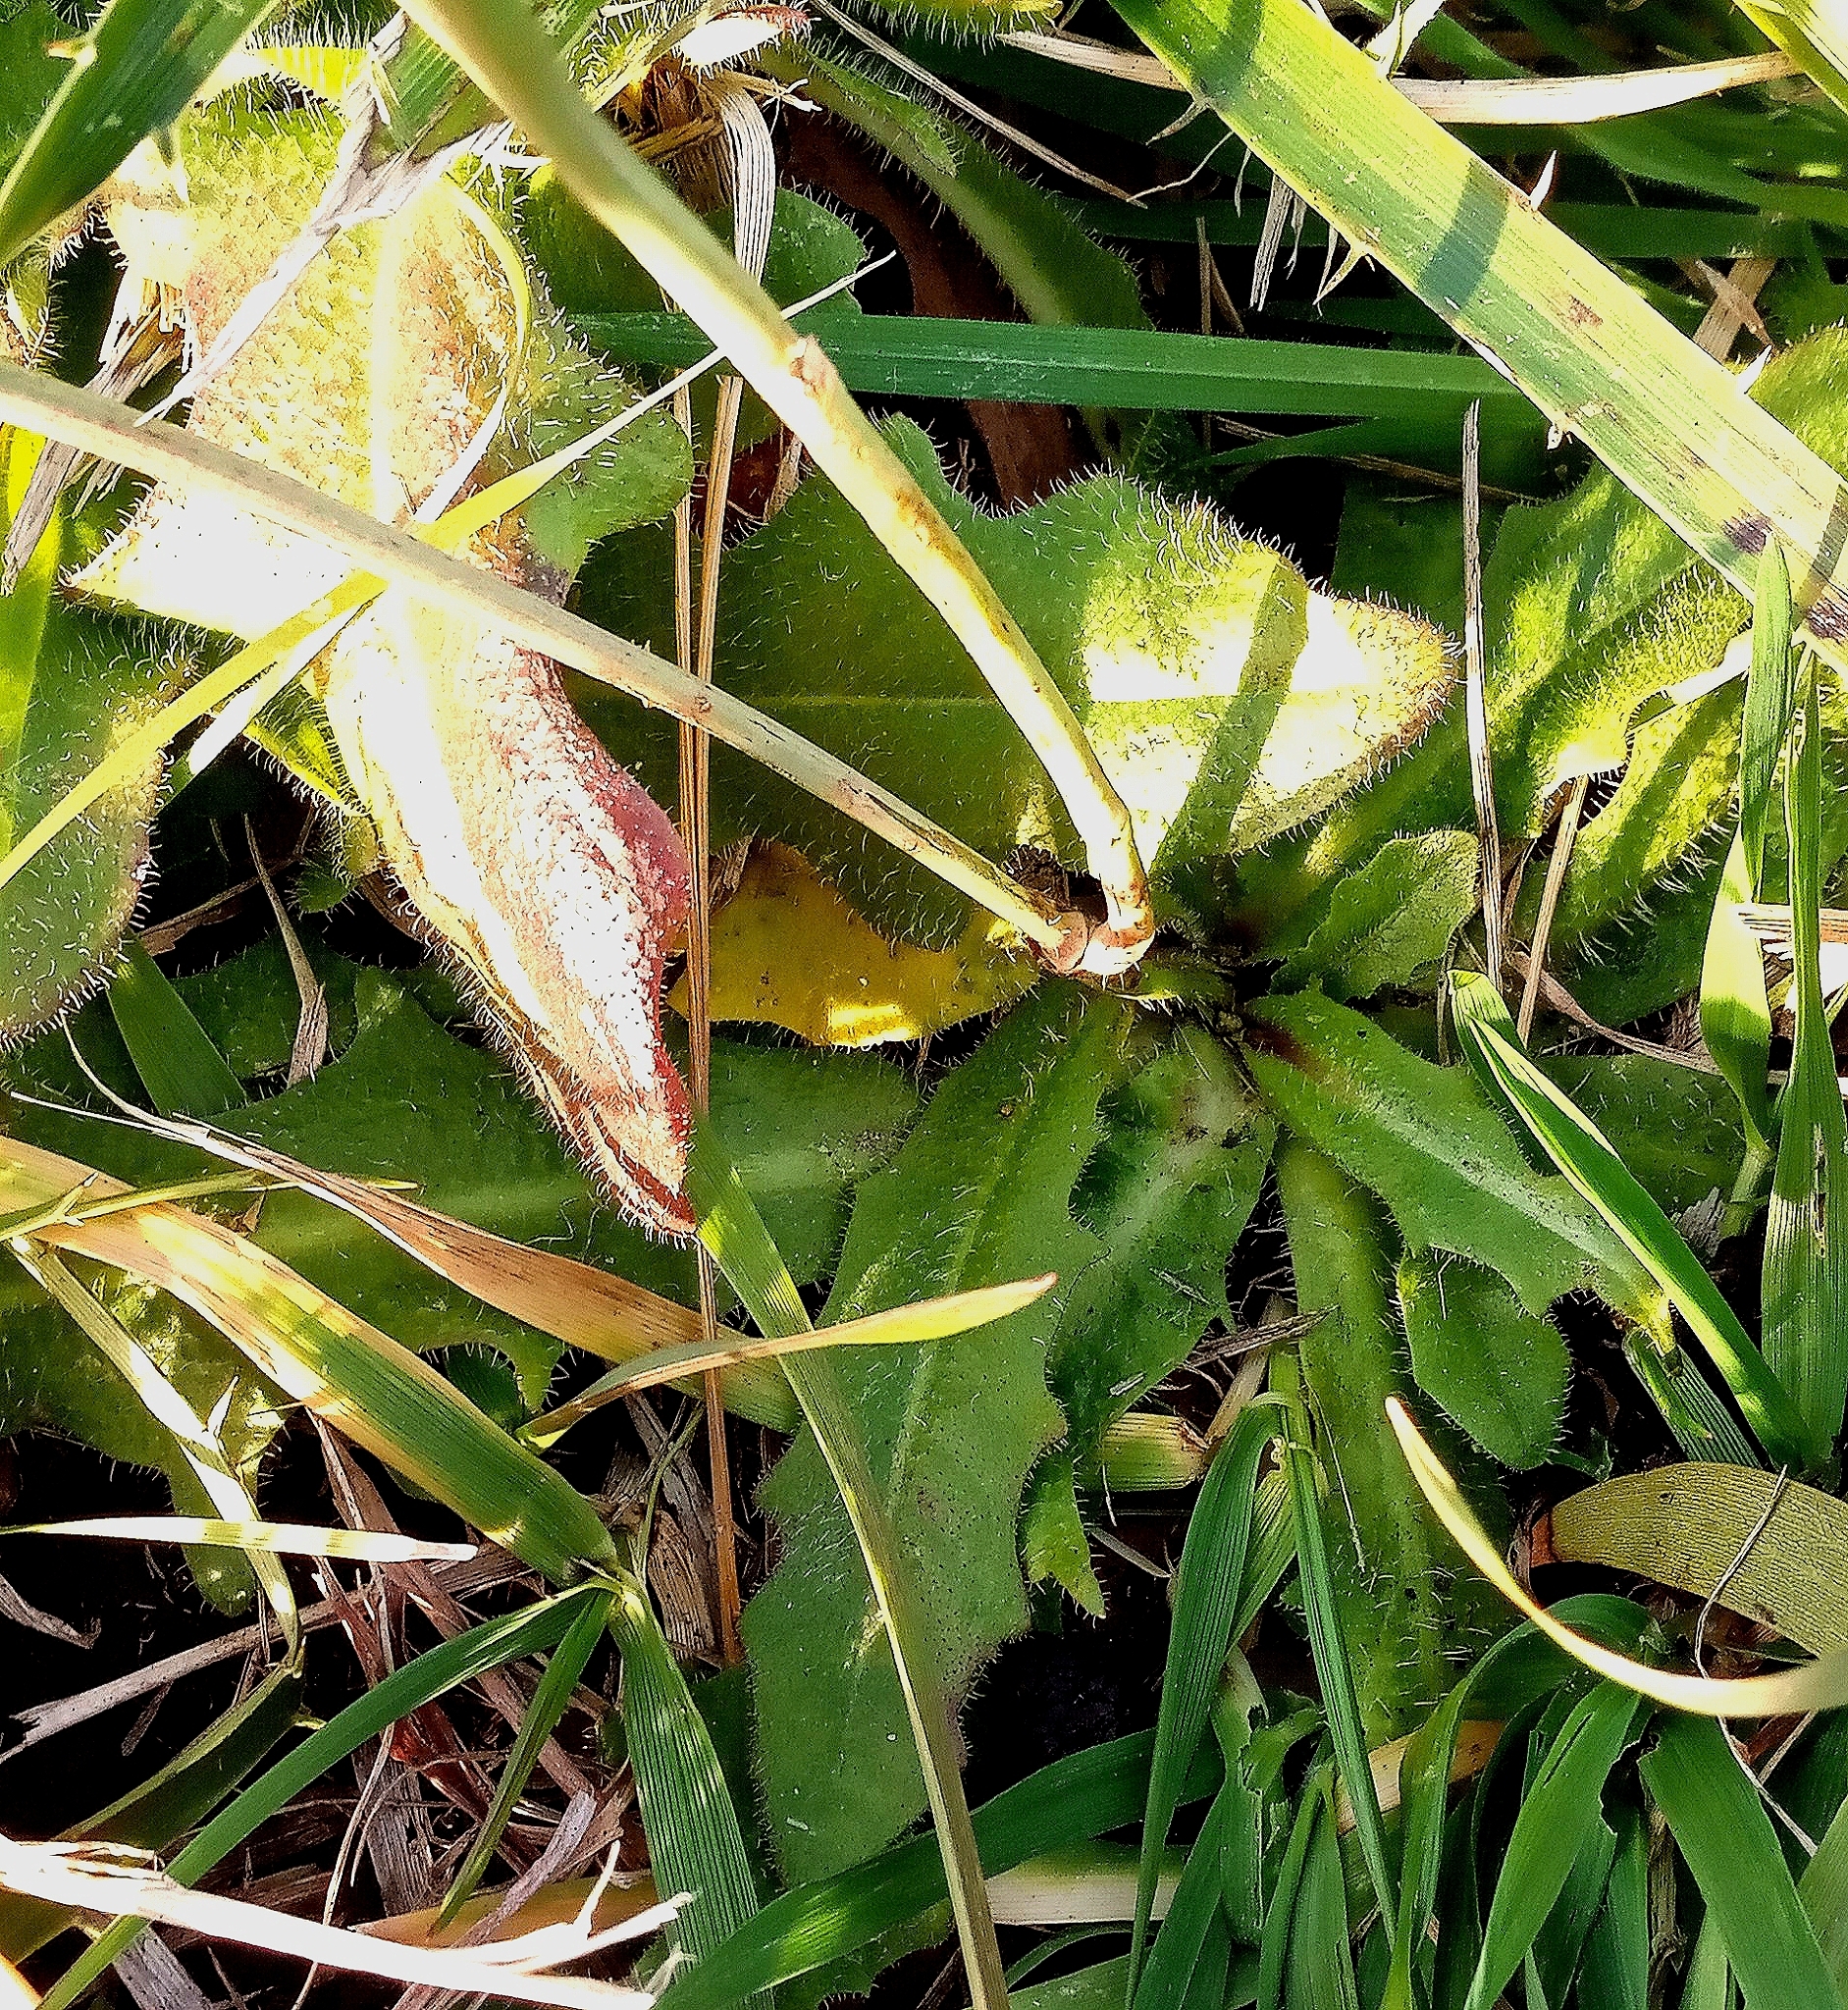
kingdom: Plantae
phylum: Tracheophyta
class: Magnoliopsida
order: Asterales
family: Asteraceae
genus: Hypochaeris
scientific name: Hypochaeris radicata
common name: Flatweed
